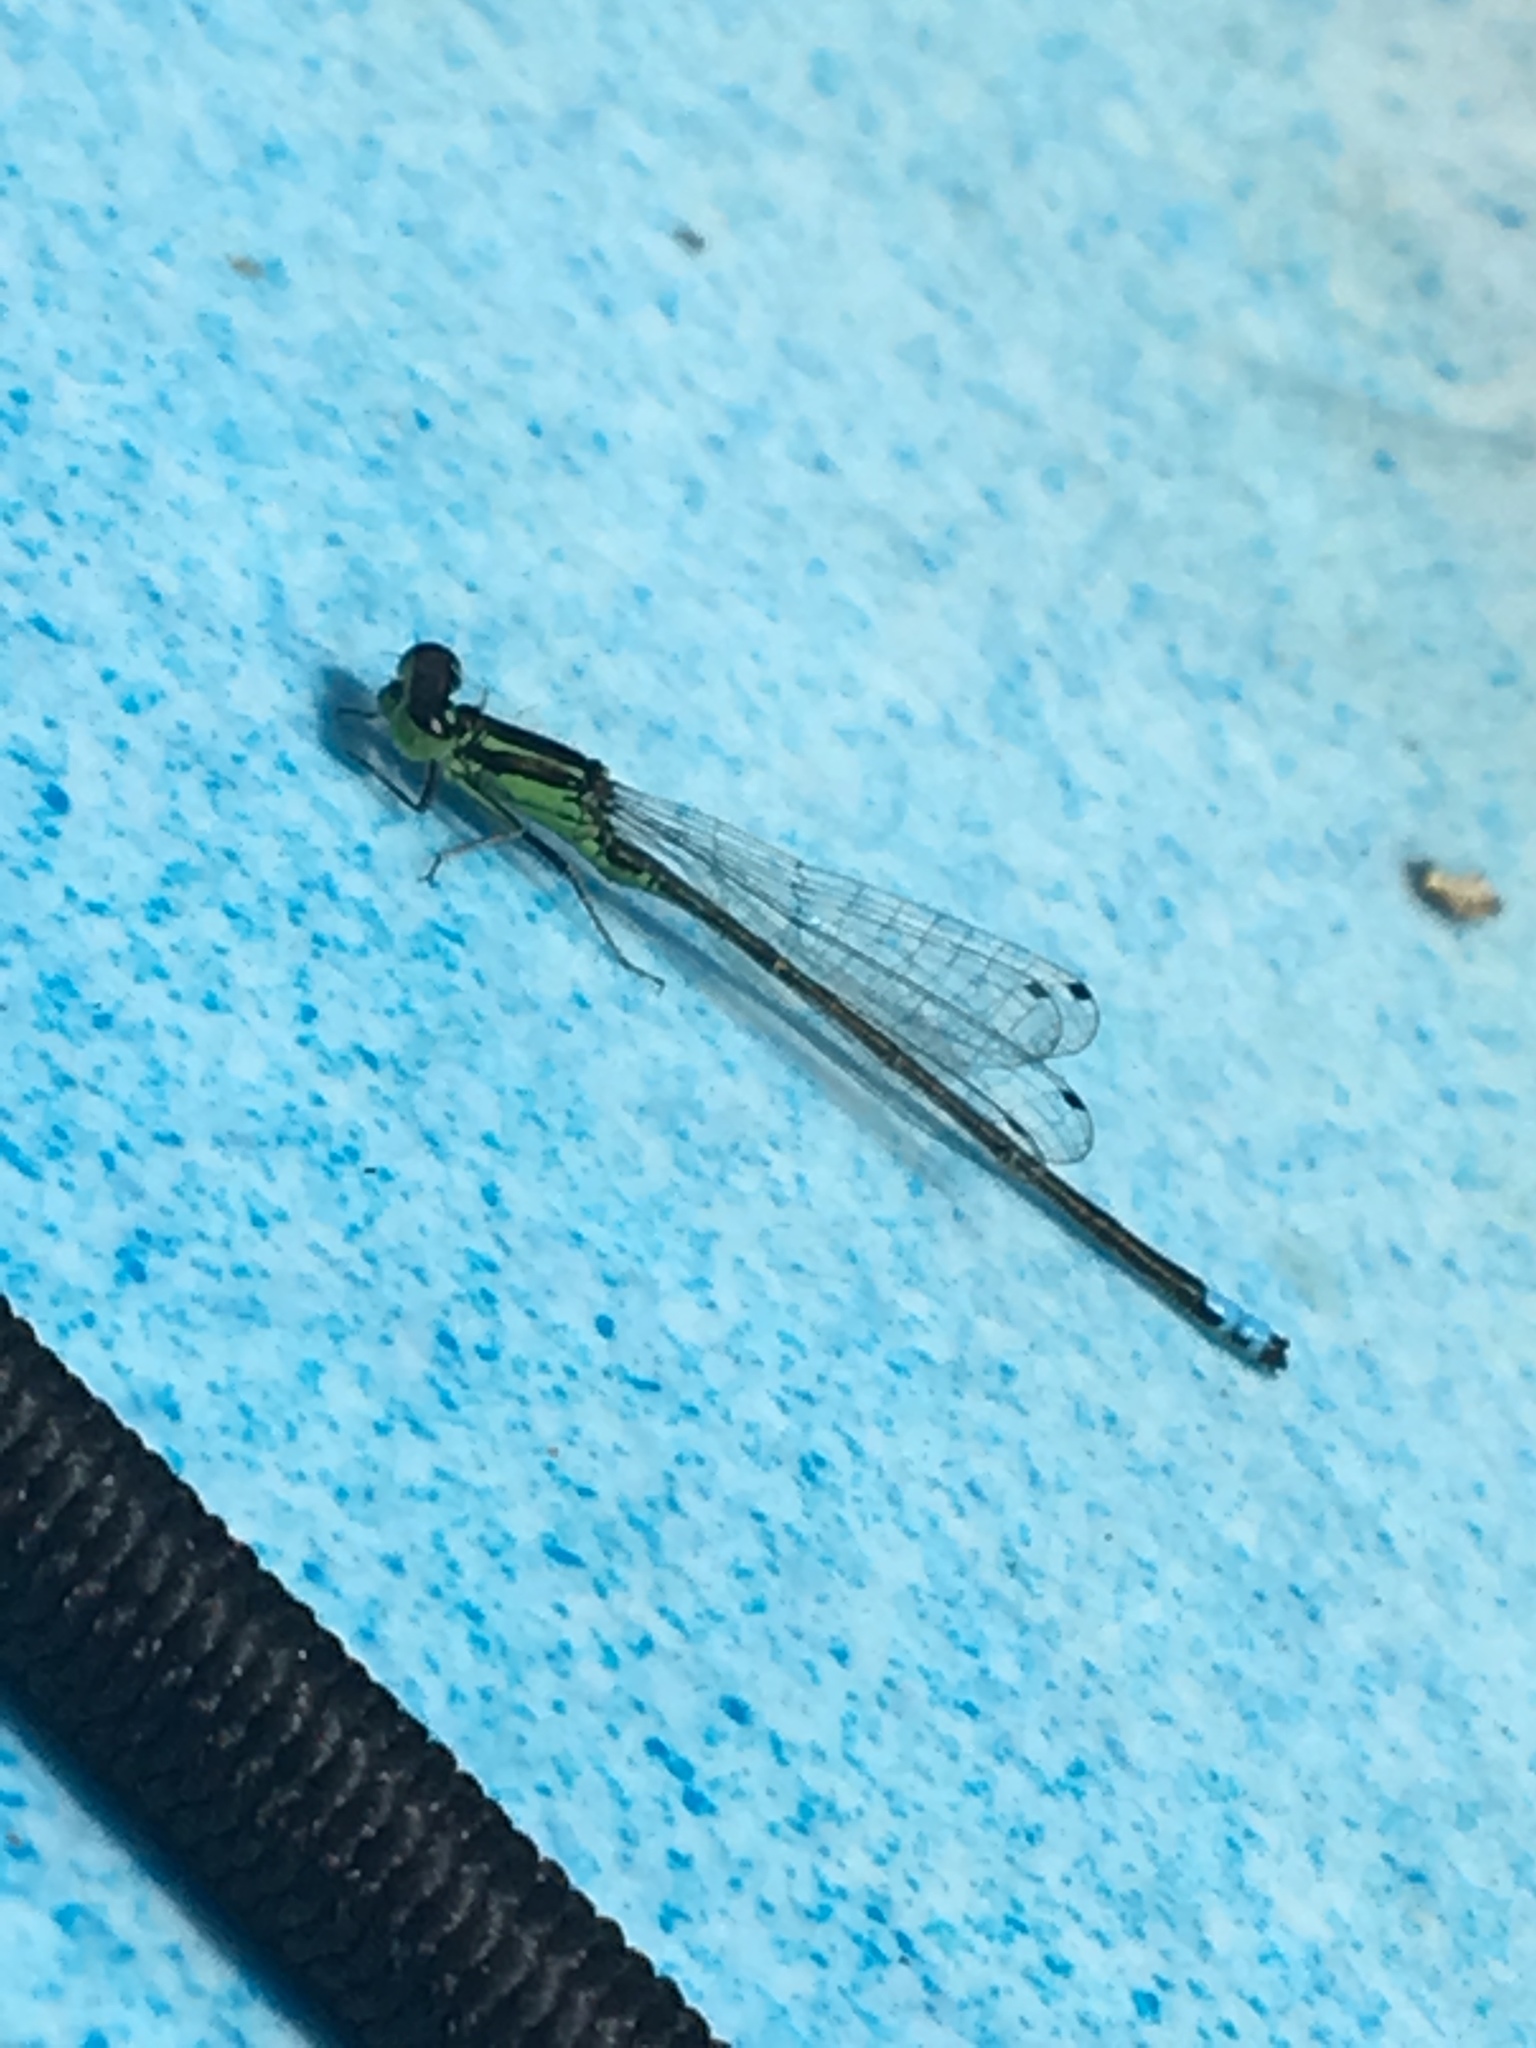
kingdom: Animalia
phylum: Arthropoda
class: Insecta
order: Odonata
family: Coenagrionidae
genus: Ischnura
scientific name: Ischnura verticalis
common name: Eastern forktail
